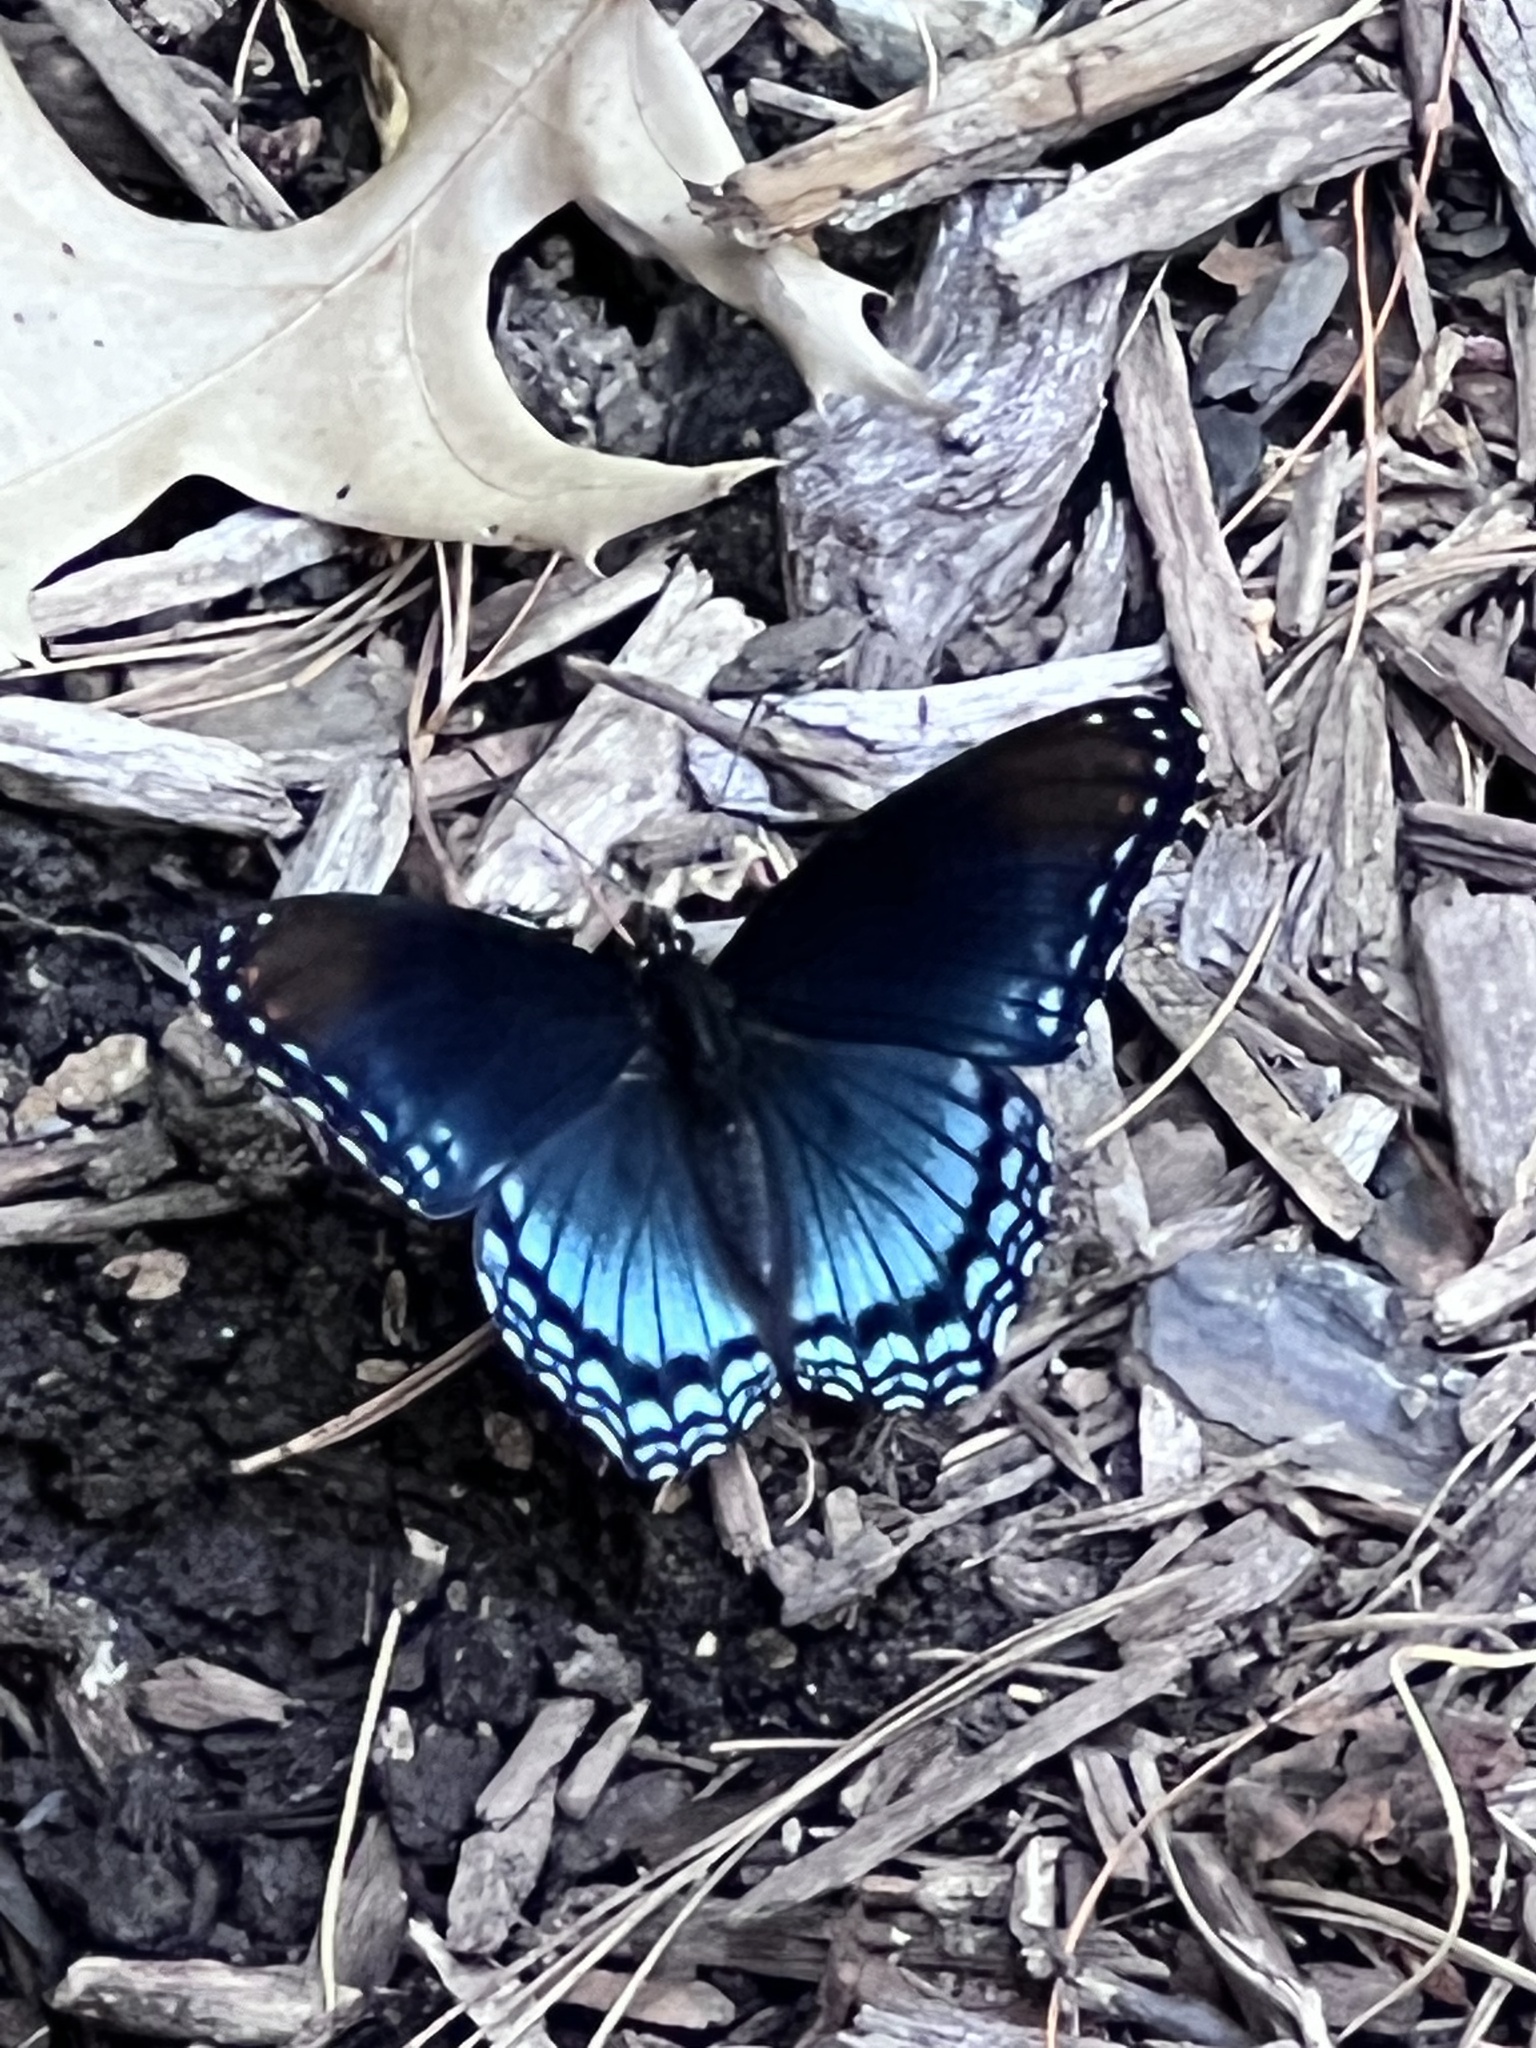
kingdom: Animalia
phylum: Arthropoda
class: Insecta
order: Lepidoptera
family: Nymphalidae
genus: Limenitis
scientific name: Limenitis astyanax
